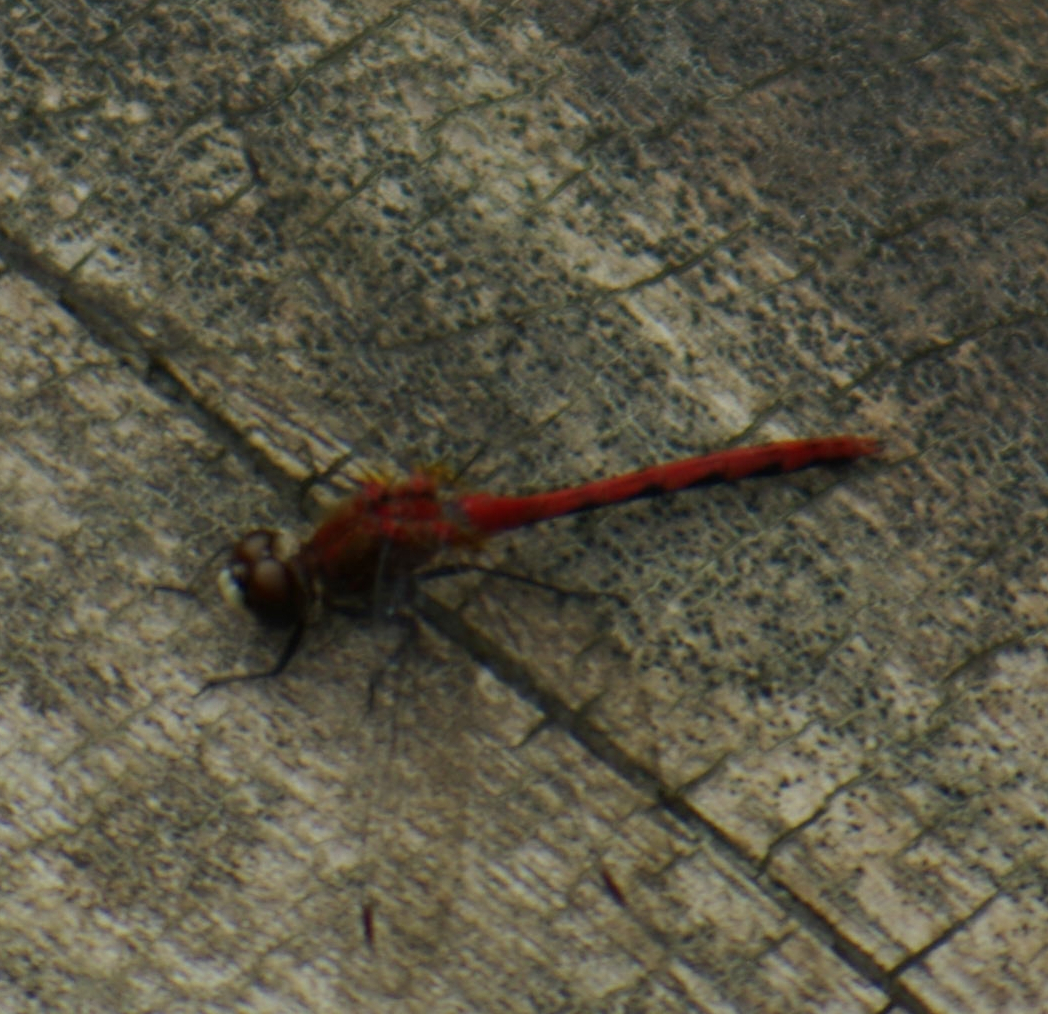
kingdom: Animalia
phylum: Arthropoda
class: Insecta
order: Odonata
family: Libellulidae
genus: Sympetrum
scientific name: Sympetrum obtrusum
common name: White-faced meadowhawk
